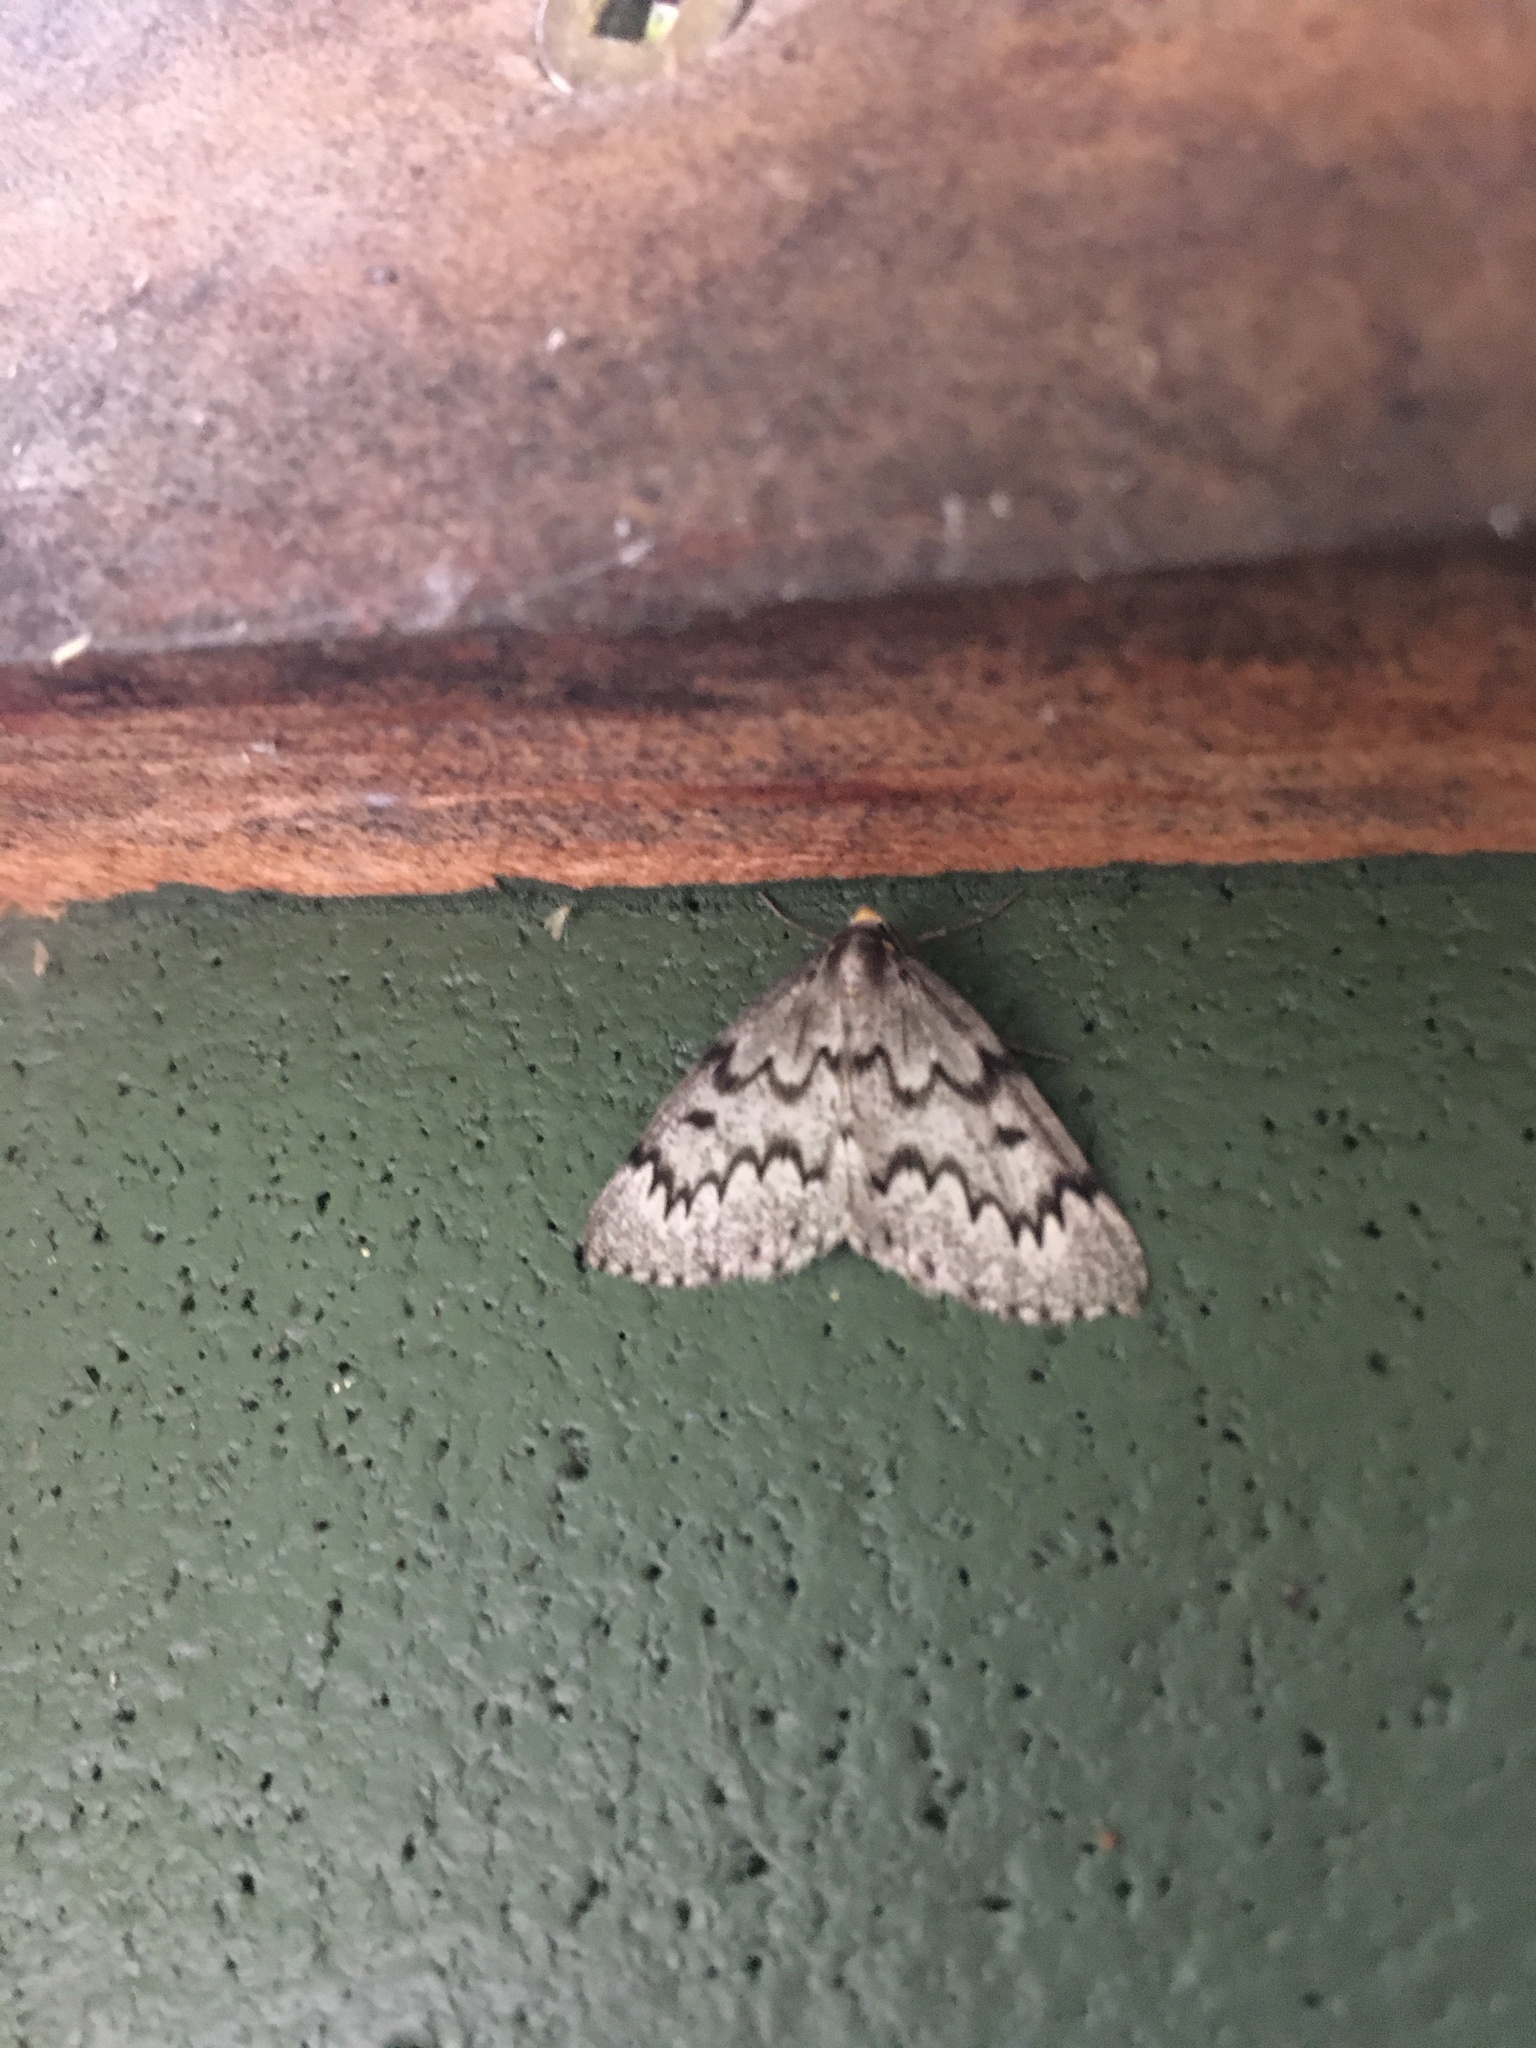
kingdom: Animalia
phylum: Arthropoda
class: Insecta
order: Lepidoptera
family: Geometridae
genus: Nepytia
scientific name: Nepytia canosaria
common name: False hemlock looper
